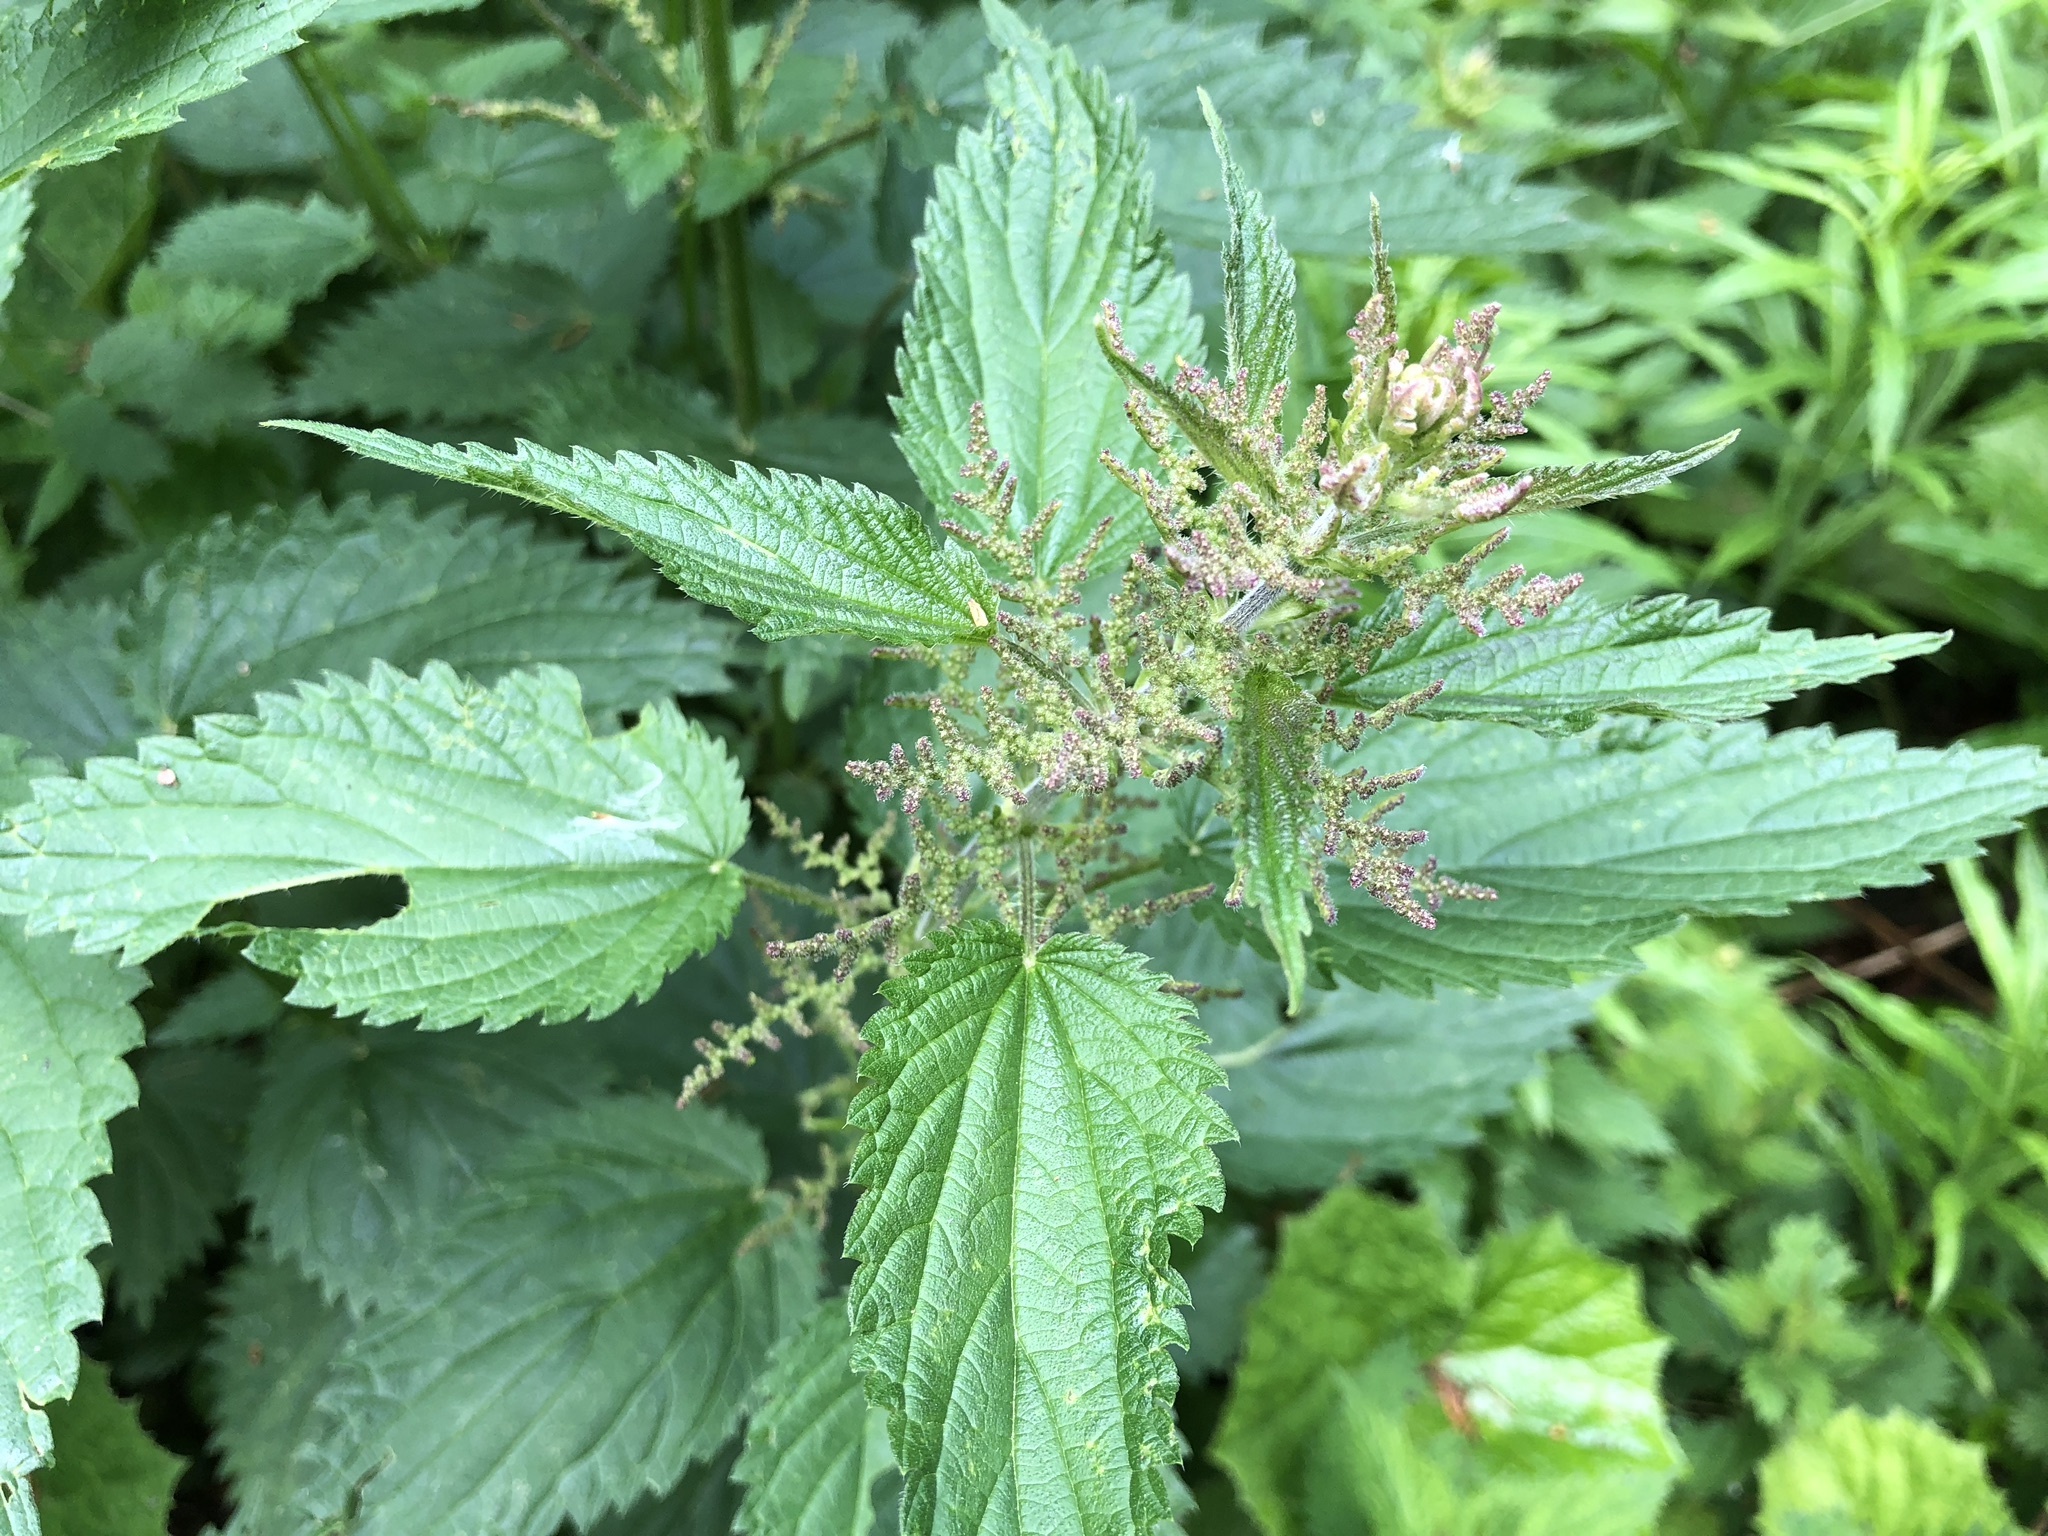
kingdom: Plantae
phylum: Tracheophyta
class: Magnoliopsida
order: Rosales
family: Urticaceae
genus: Urtica
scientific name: Urtica dioica
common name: Common nettle
